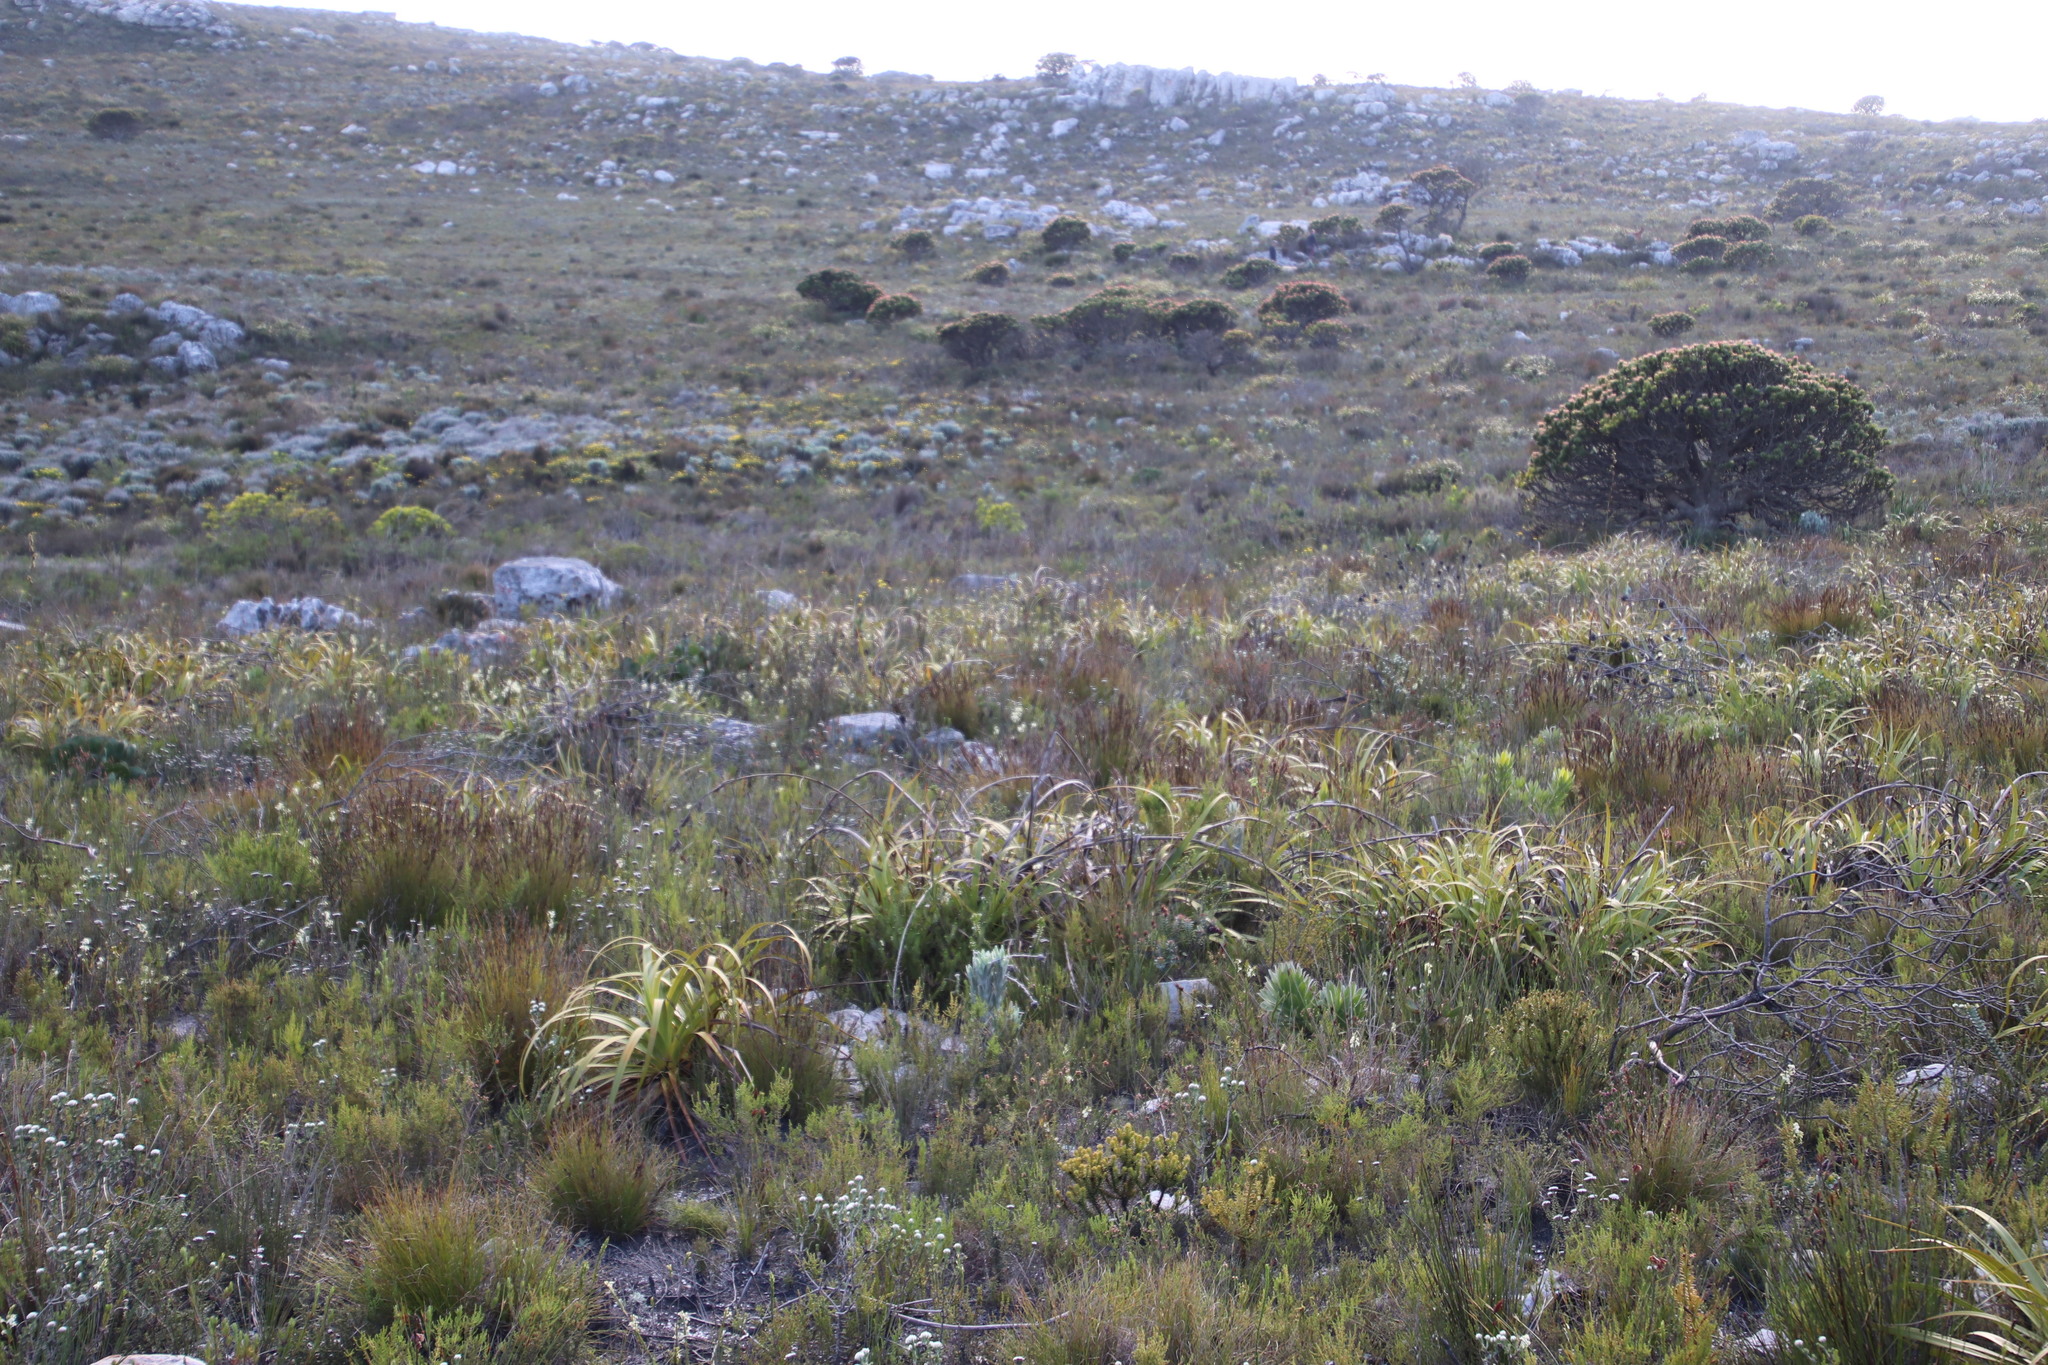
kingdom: Plantae
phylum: Tracheophyta
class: Liliopsida
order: Poales
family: Cyperaceae
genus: Tetraria
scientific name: Tetraria thermalis
